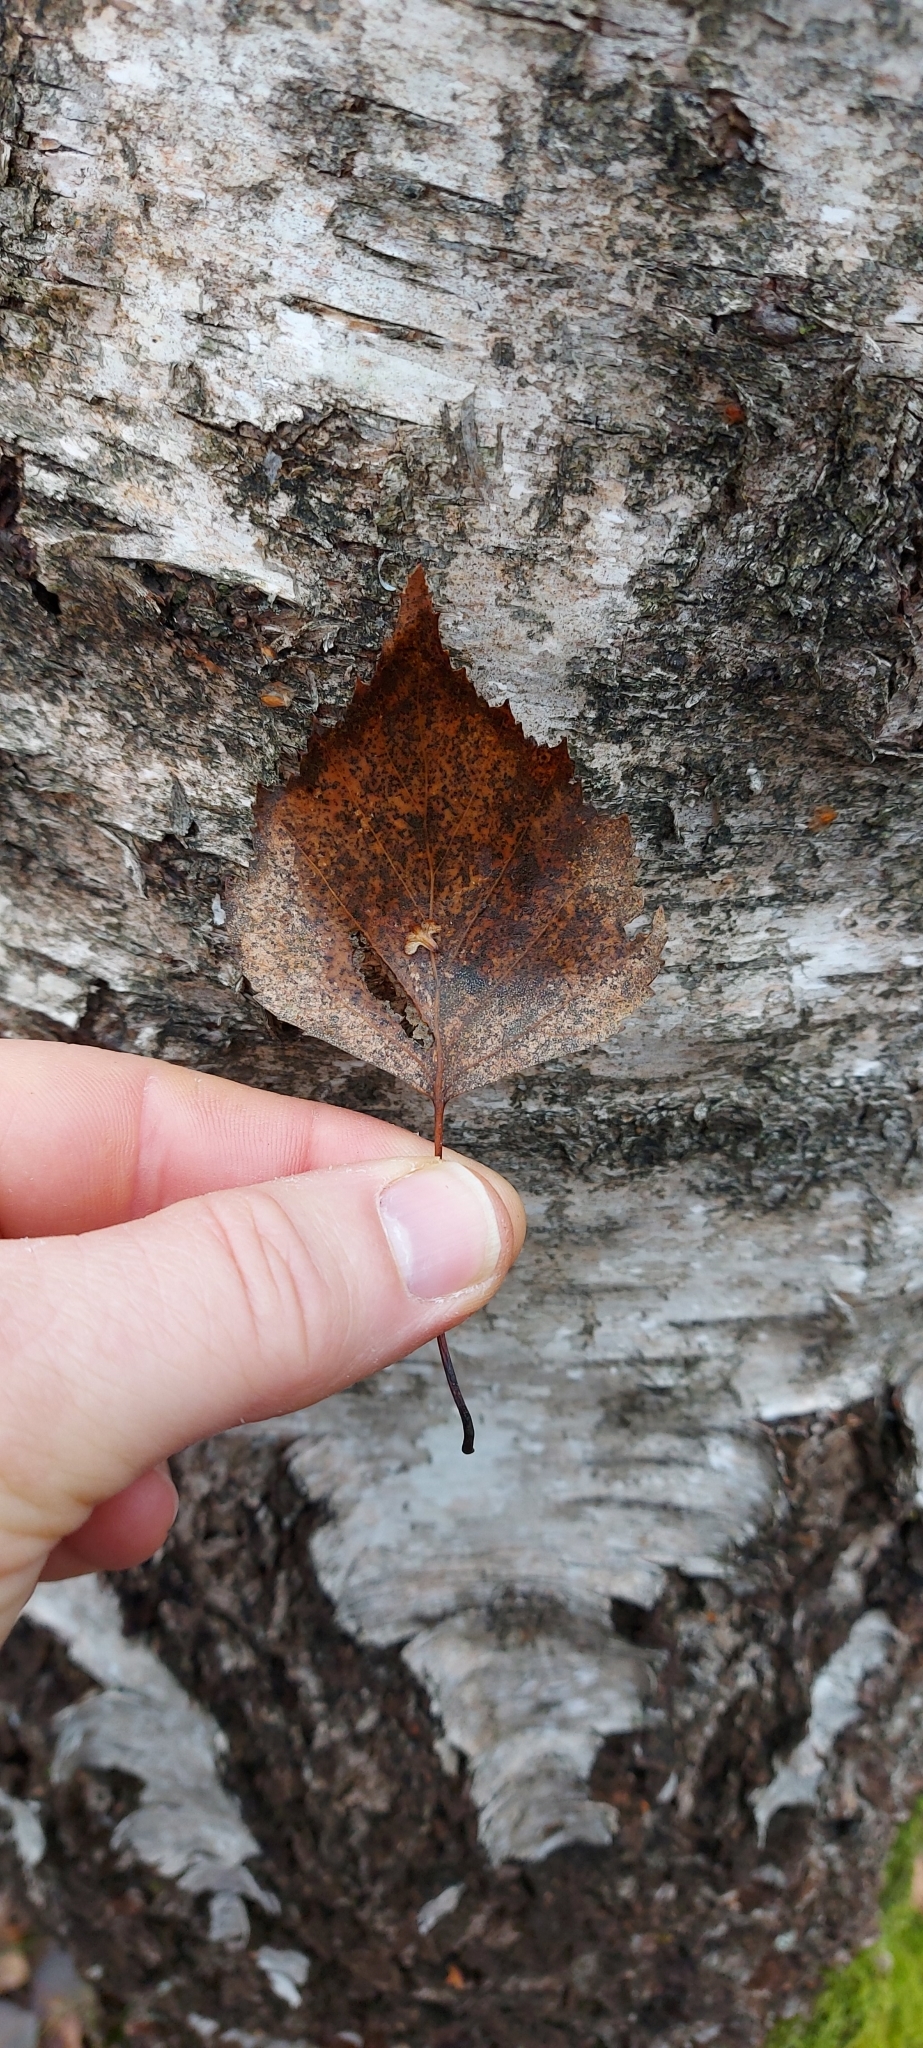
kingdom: Plantae
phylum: Tracheophyta
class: Magnoliopsida
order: Fagales
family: Betulaceae
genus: Betula
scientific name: Betula pendula
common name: Silver birch
